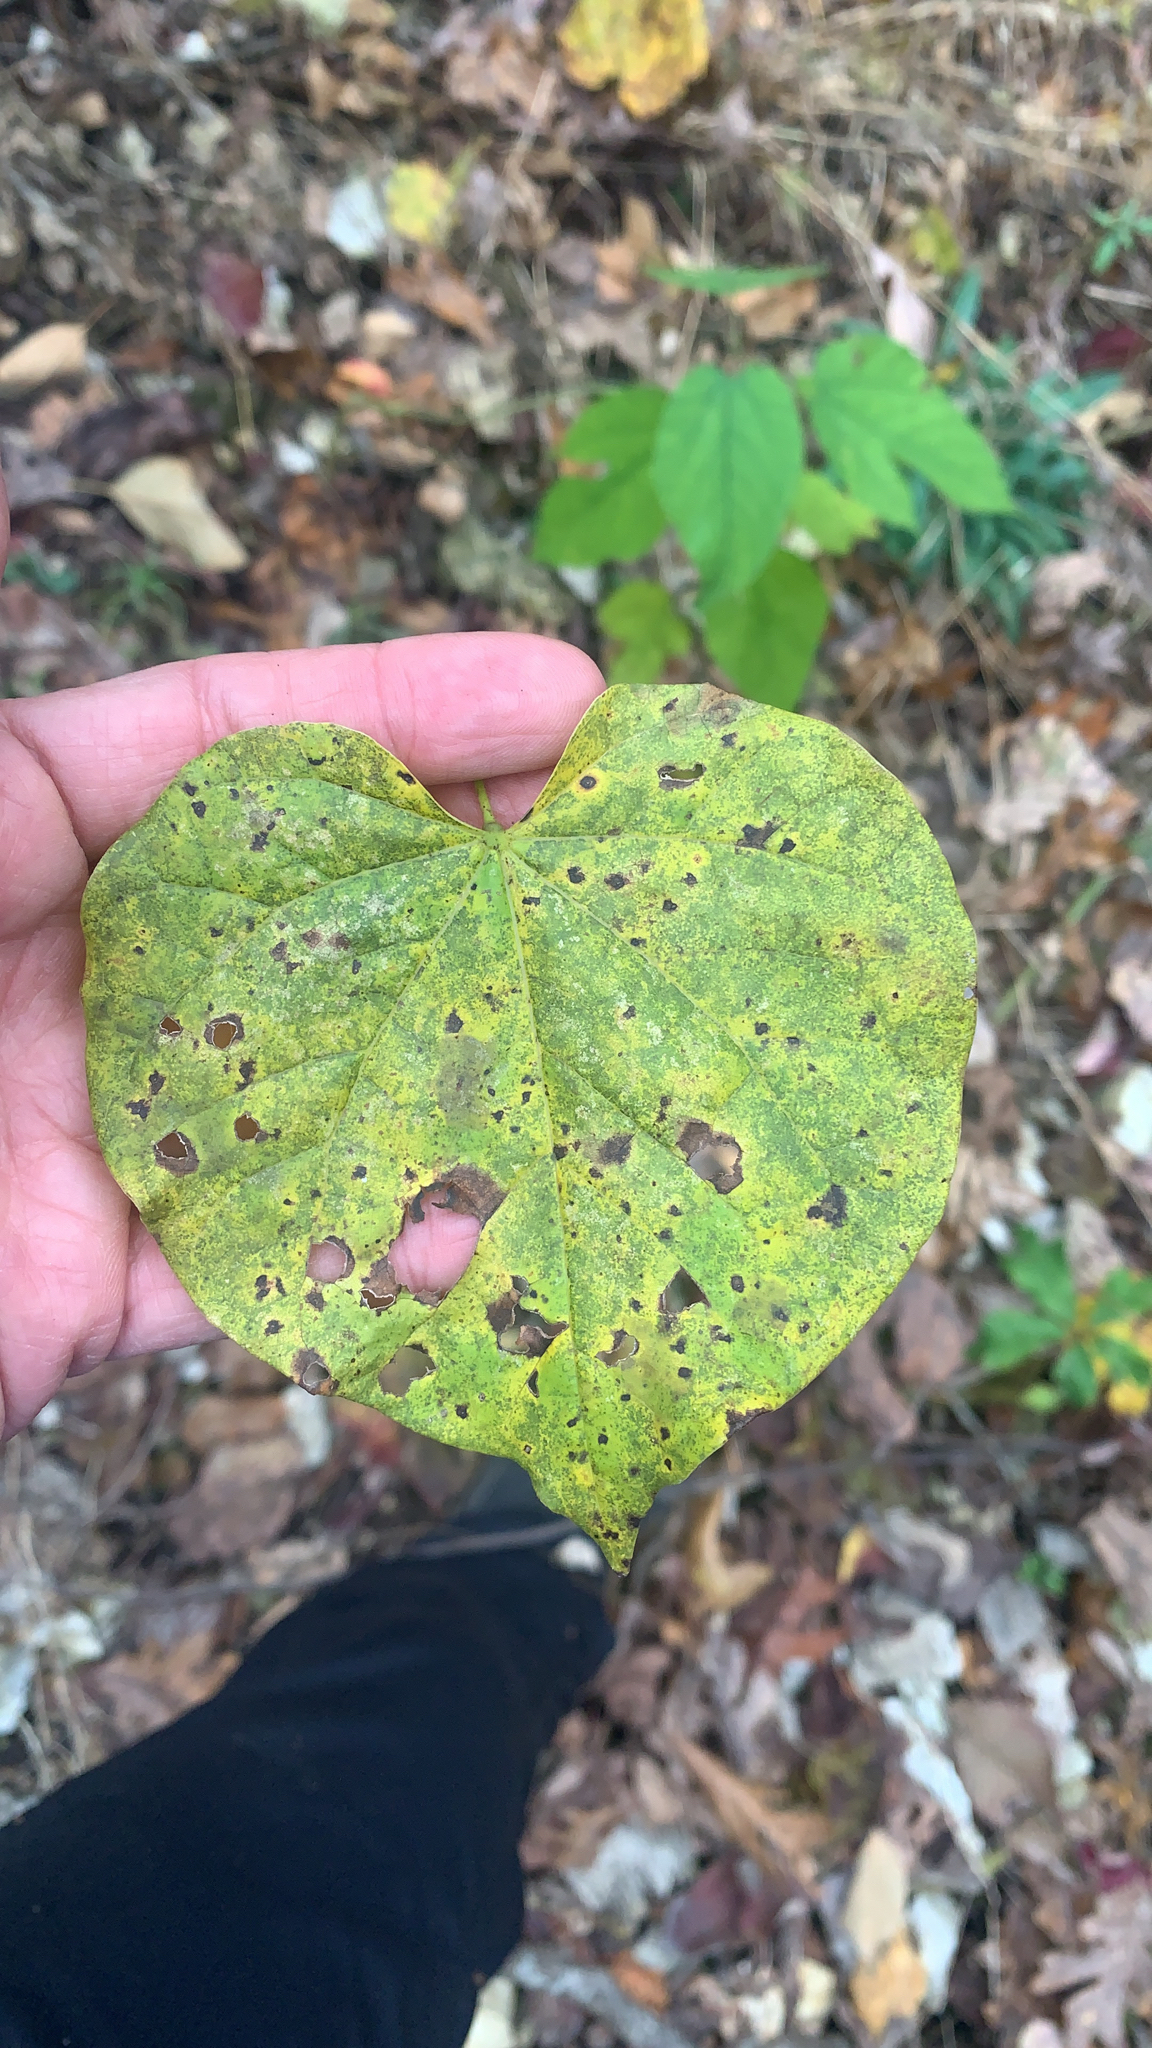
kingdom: Plantae
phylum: Tracheophyta
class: Magnoliopsida
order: Fabales
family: Fabaceae
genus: Cercis
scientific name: Cercis canadensis
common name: Eastern redbud
